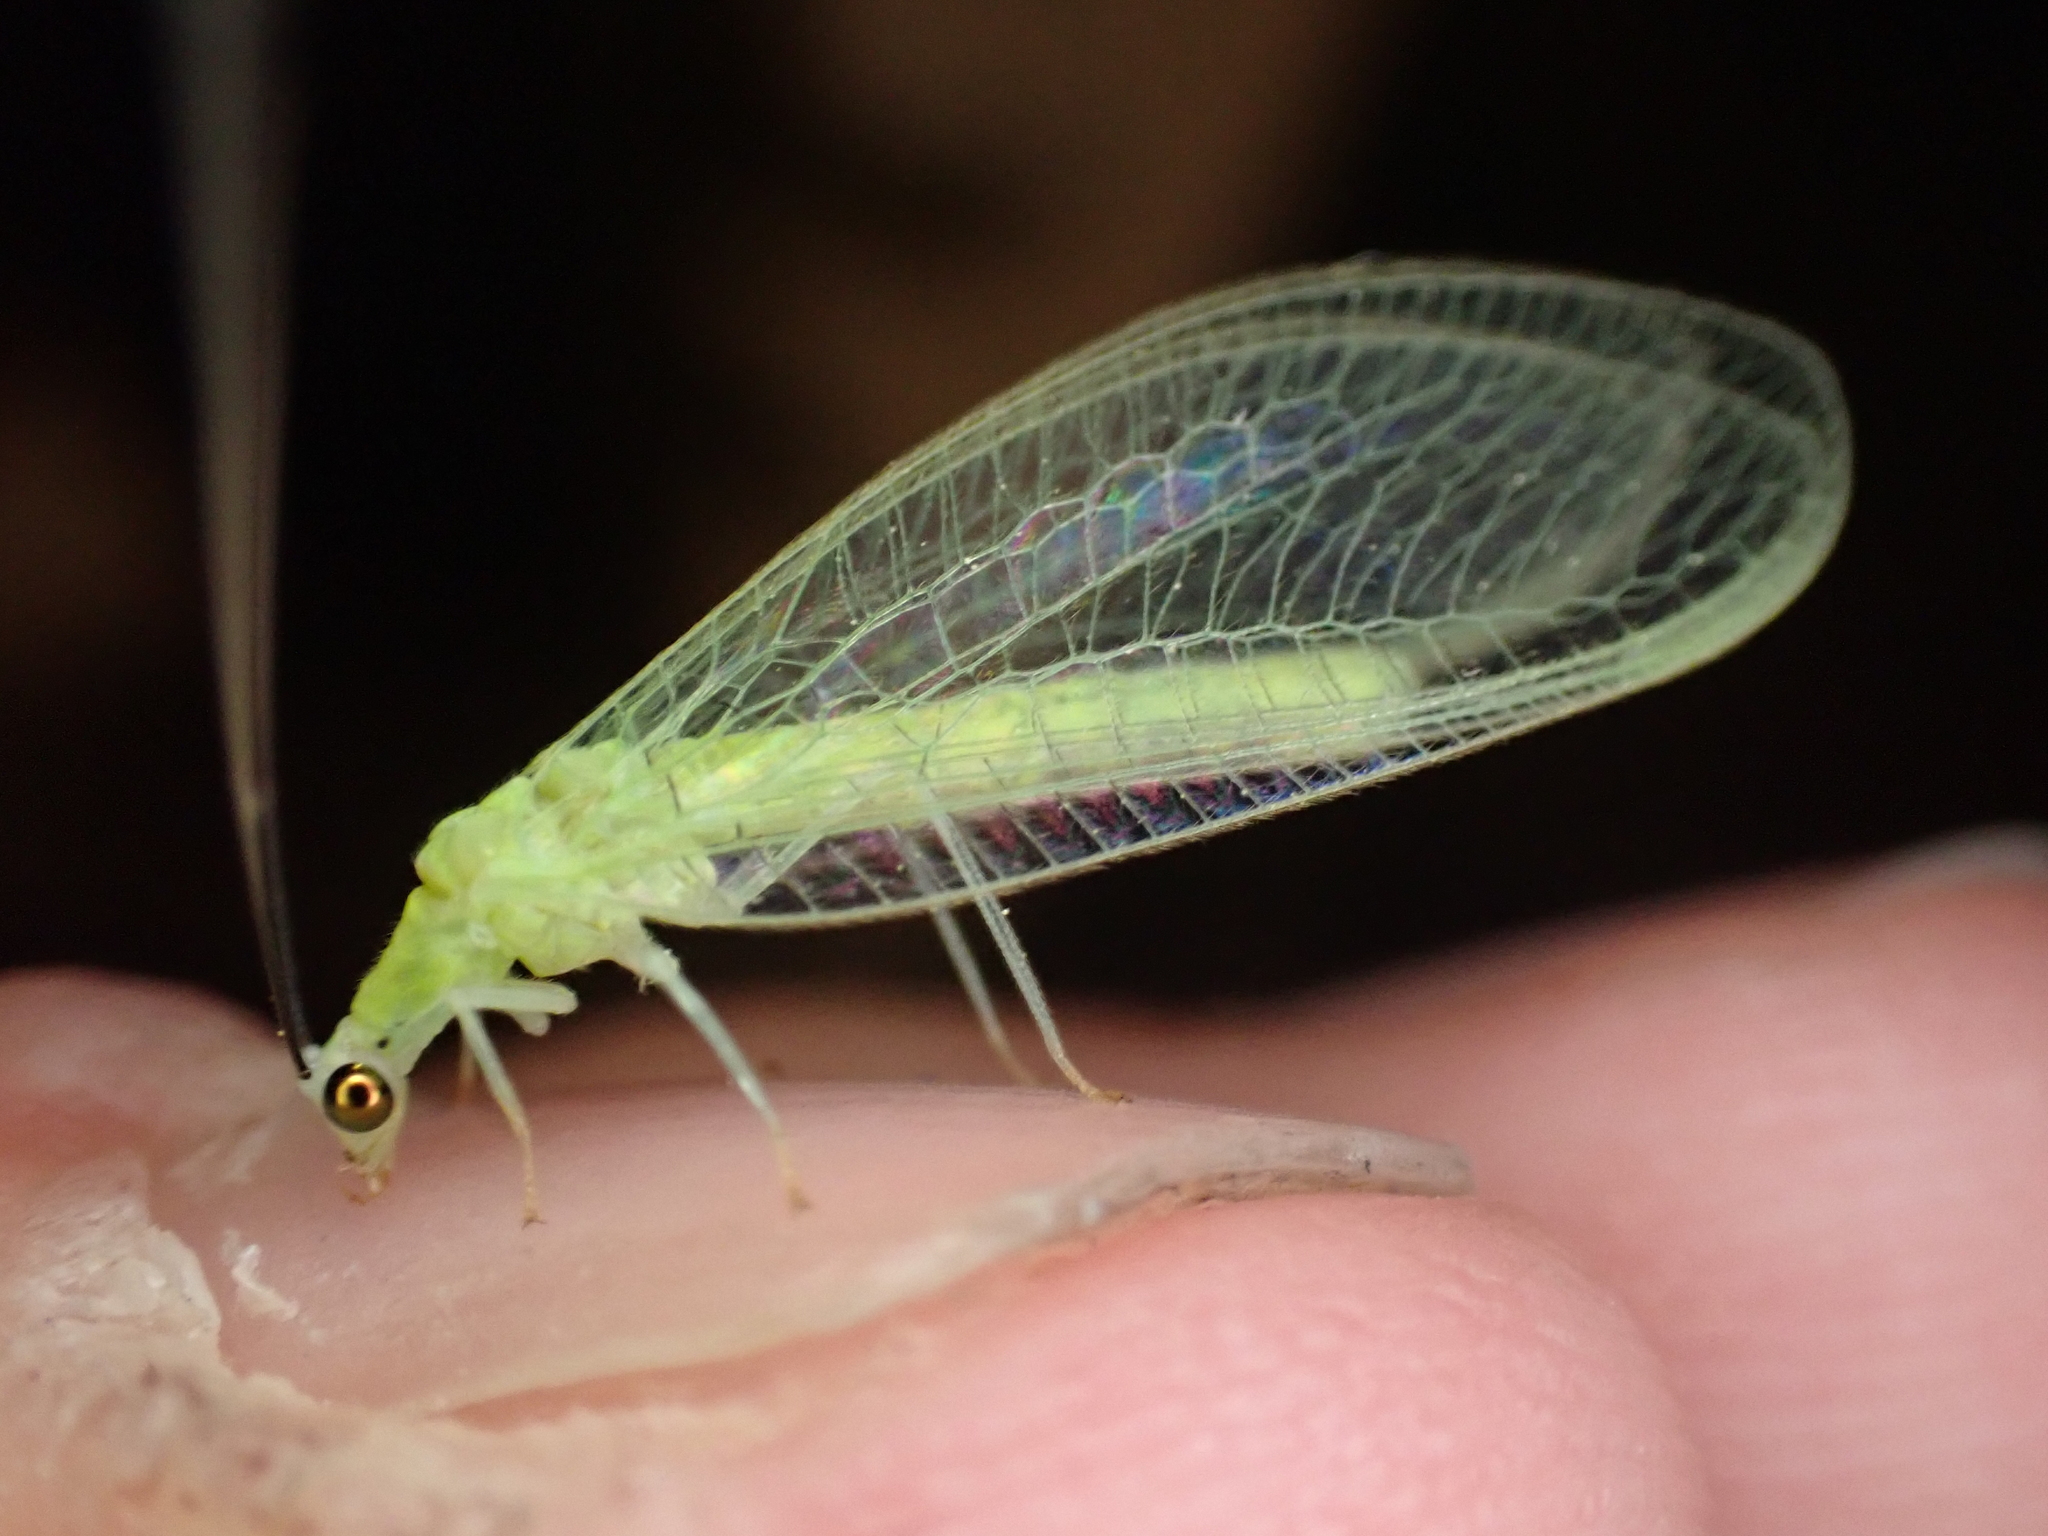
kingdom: Animalia
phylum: Arthropoda
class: Insecta
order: Neuroptera
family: Chrysopidae
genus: Chrysopa
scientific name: Chrysopa nigricornis
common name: Black-horned green lacewing
